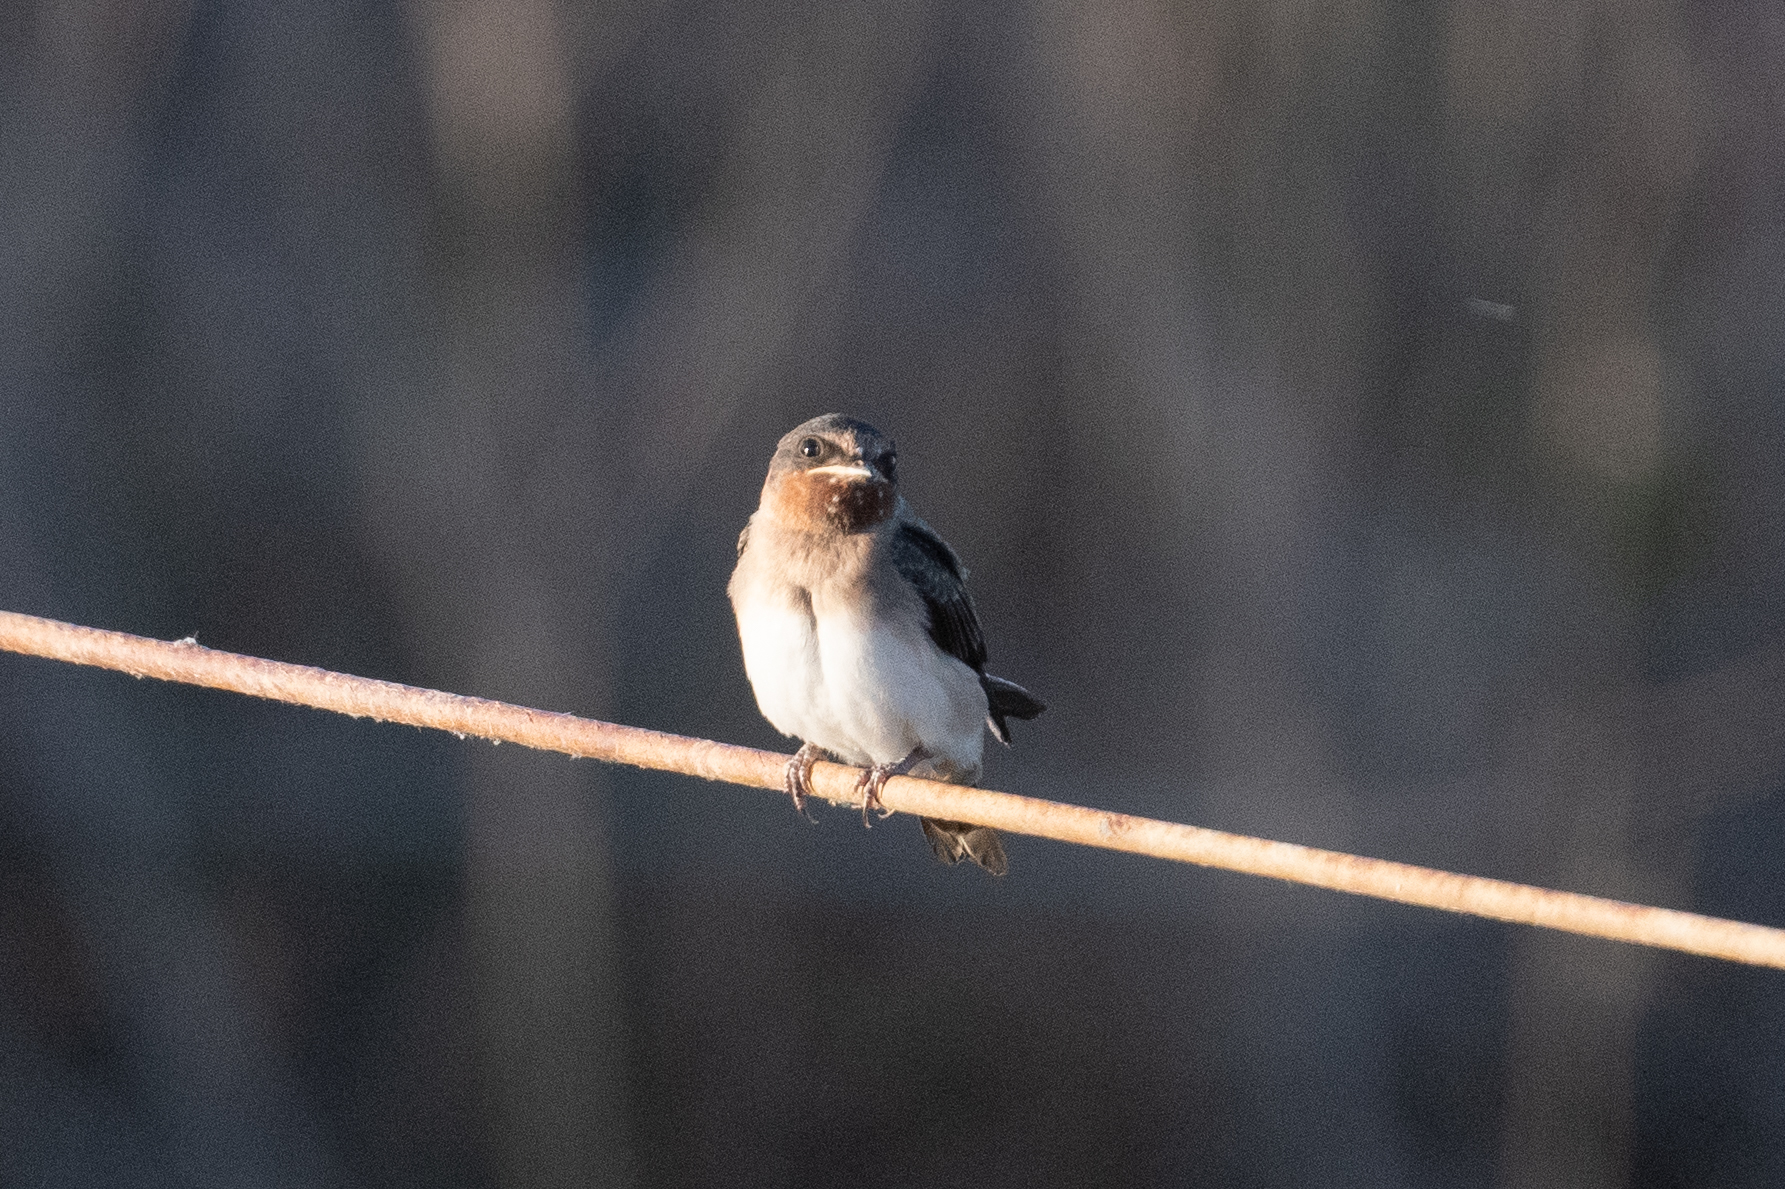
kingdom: Animalia
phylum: Chordata
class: Aves
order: Passeriformes
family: Hirundinidae
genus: Petrochelidon
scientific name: Petrochelidon pyrrhonota
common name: American cliff swallow
